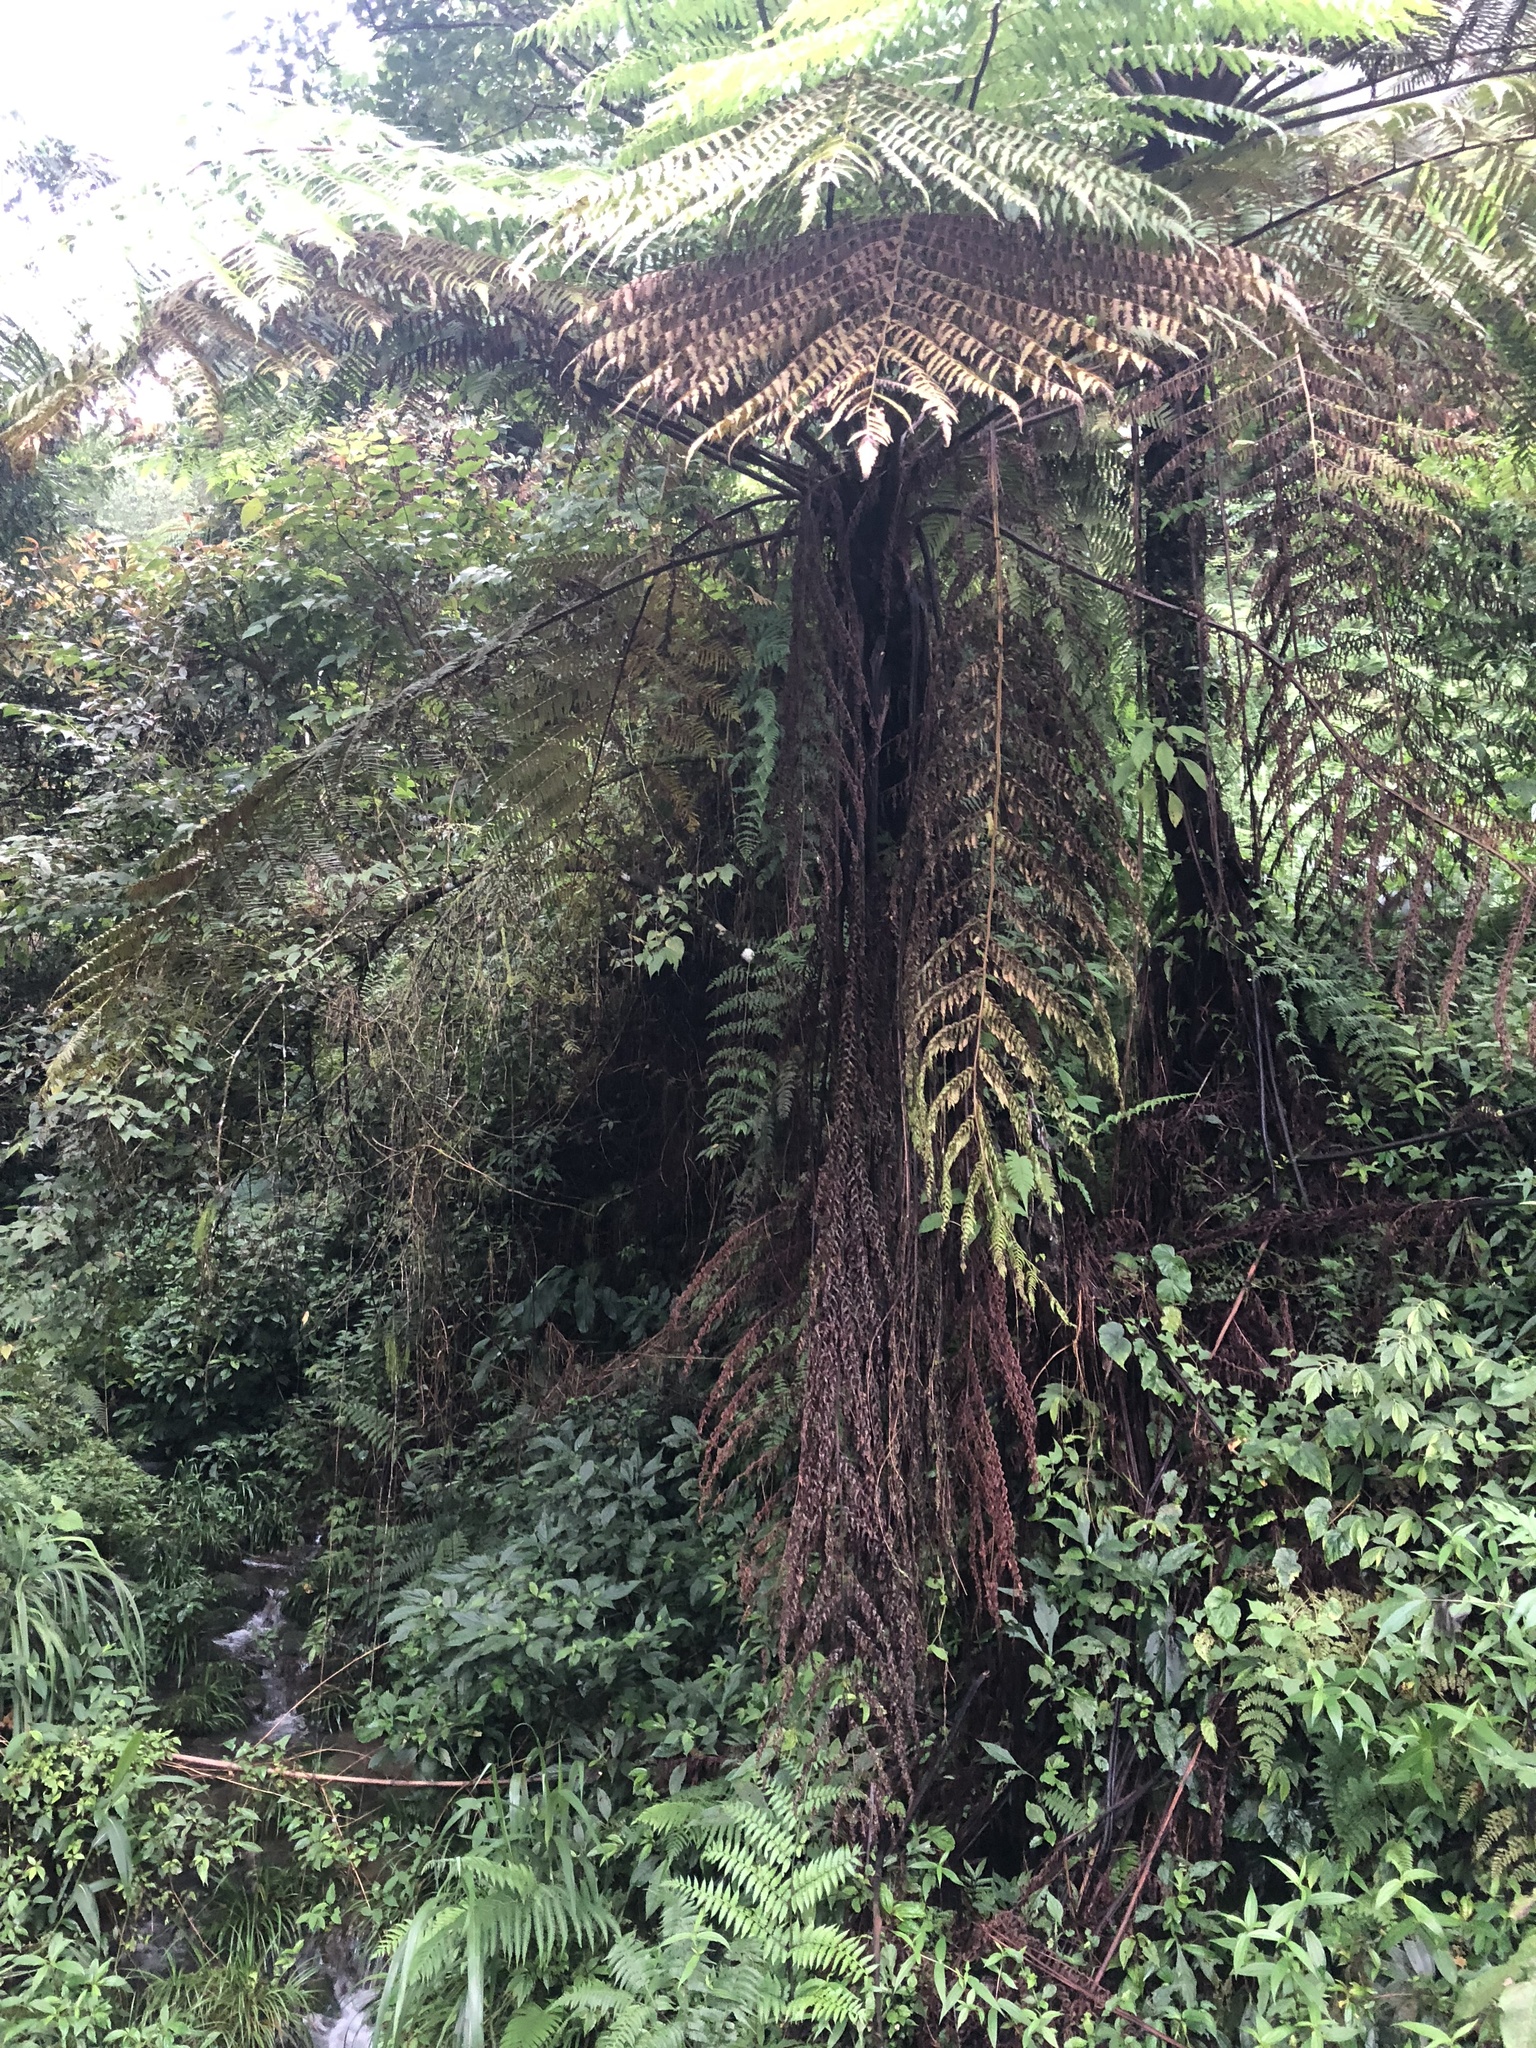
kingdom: Plantae
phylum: Tracheophyta
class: Polypodiopsida
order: Cyatheales
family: Cyatheaceae
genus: Alsophila
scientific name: Alsophila spinulosa
